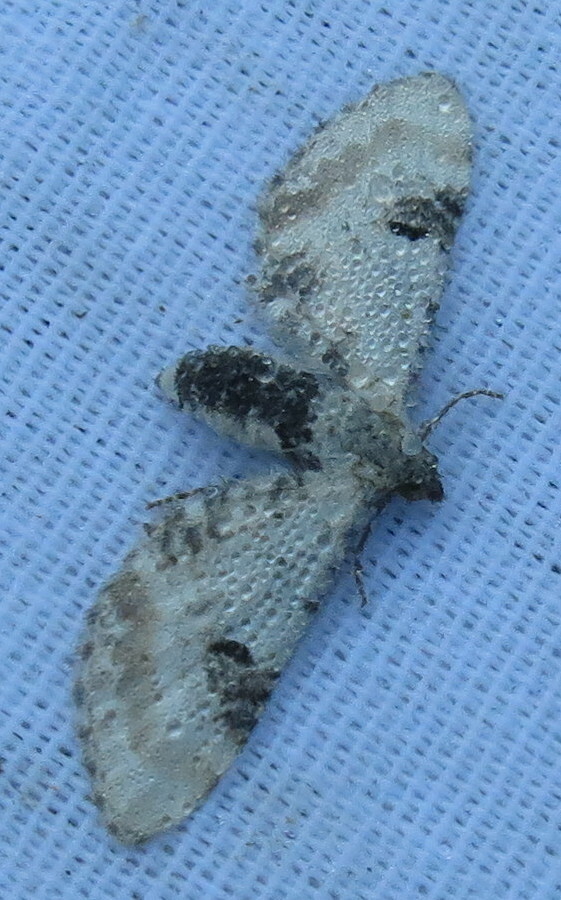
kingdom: Animalia
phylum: Arthropoda
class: Insecta
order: Lepidoptera
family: Geometridae
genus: Eupithecia
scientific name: Eupithecia centaureata
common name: Lime-speck pug
